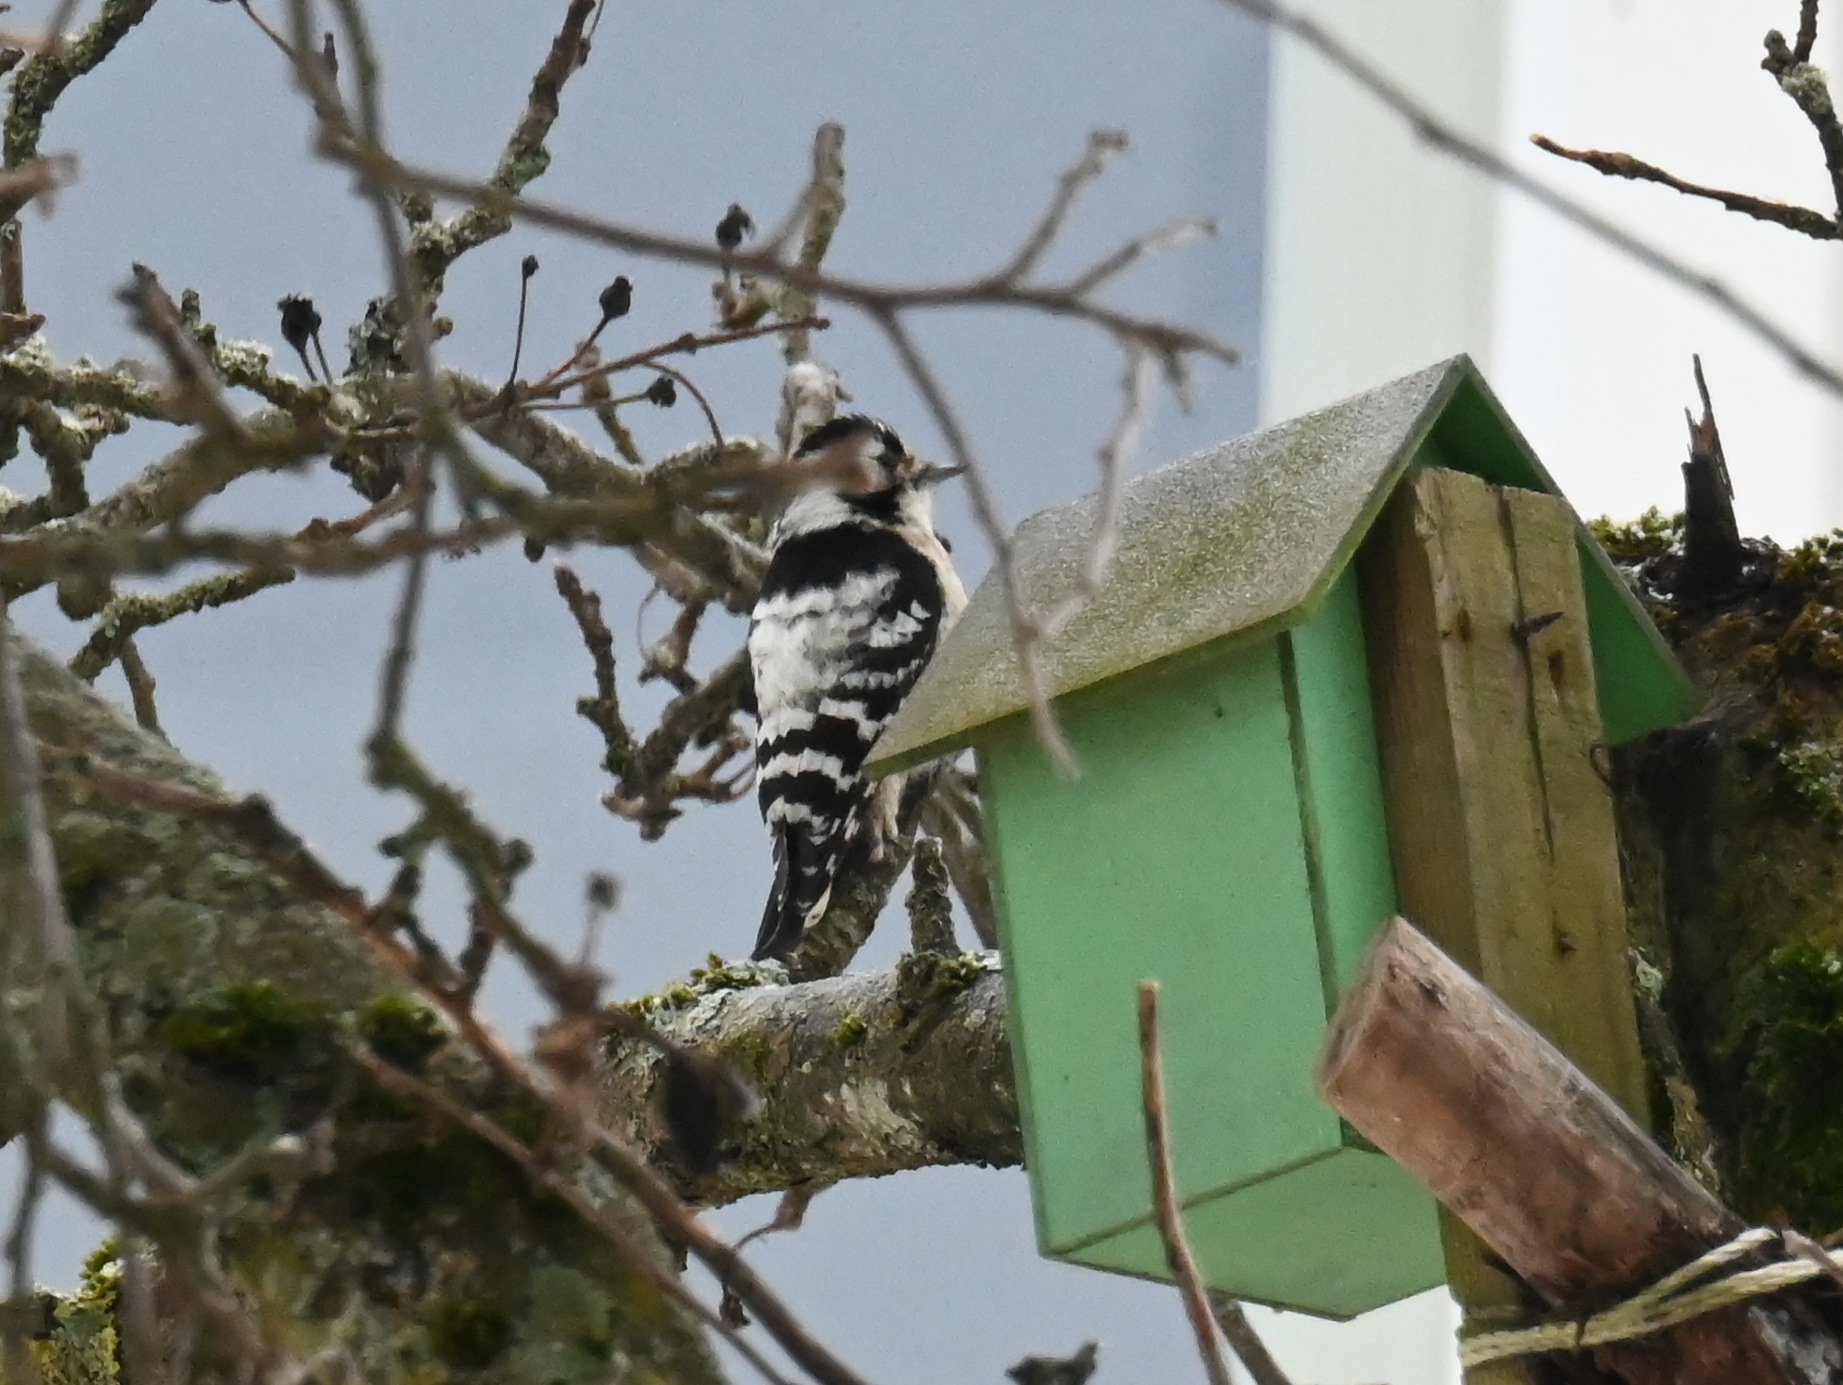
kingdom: Animalia
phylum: Chordata
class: Aves
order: Piciformes
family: Picidae
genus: Dryobates
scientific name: Dryobates minor
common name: Lesser spotted woodpecker
